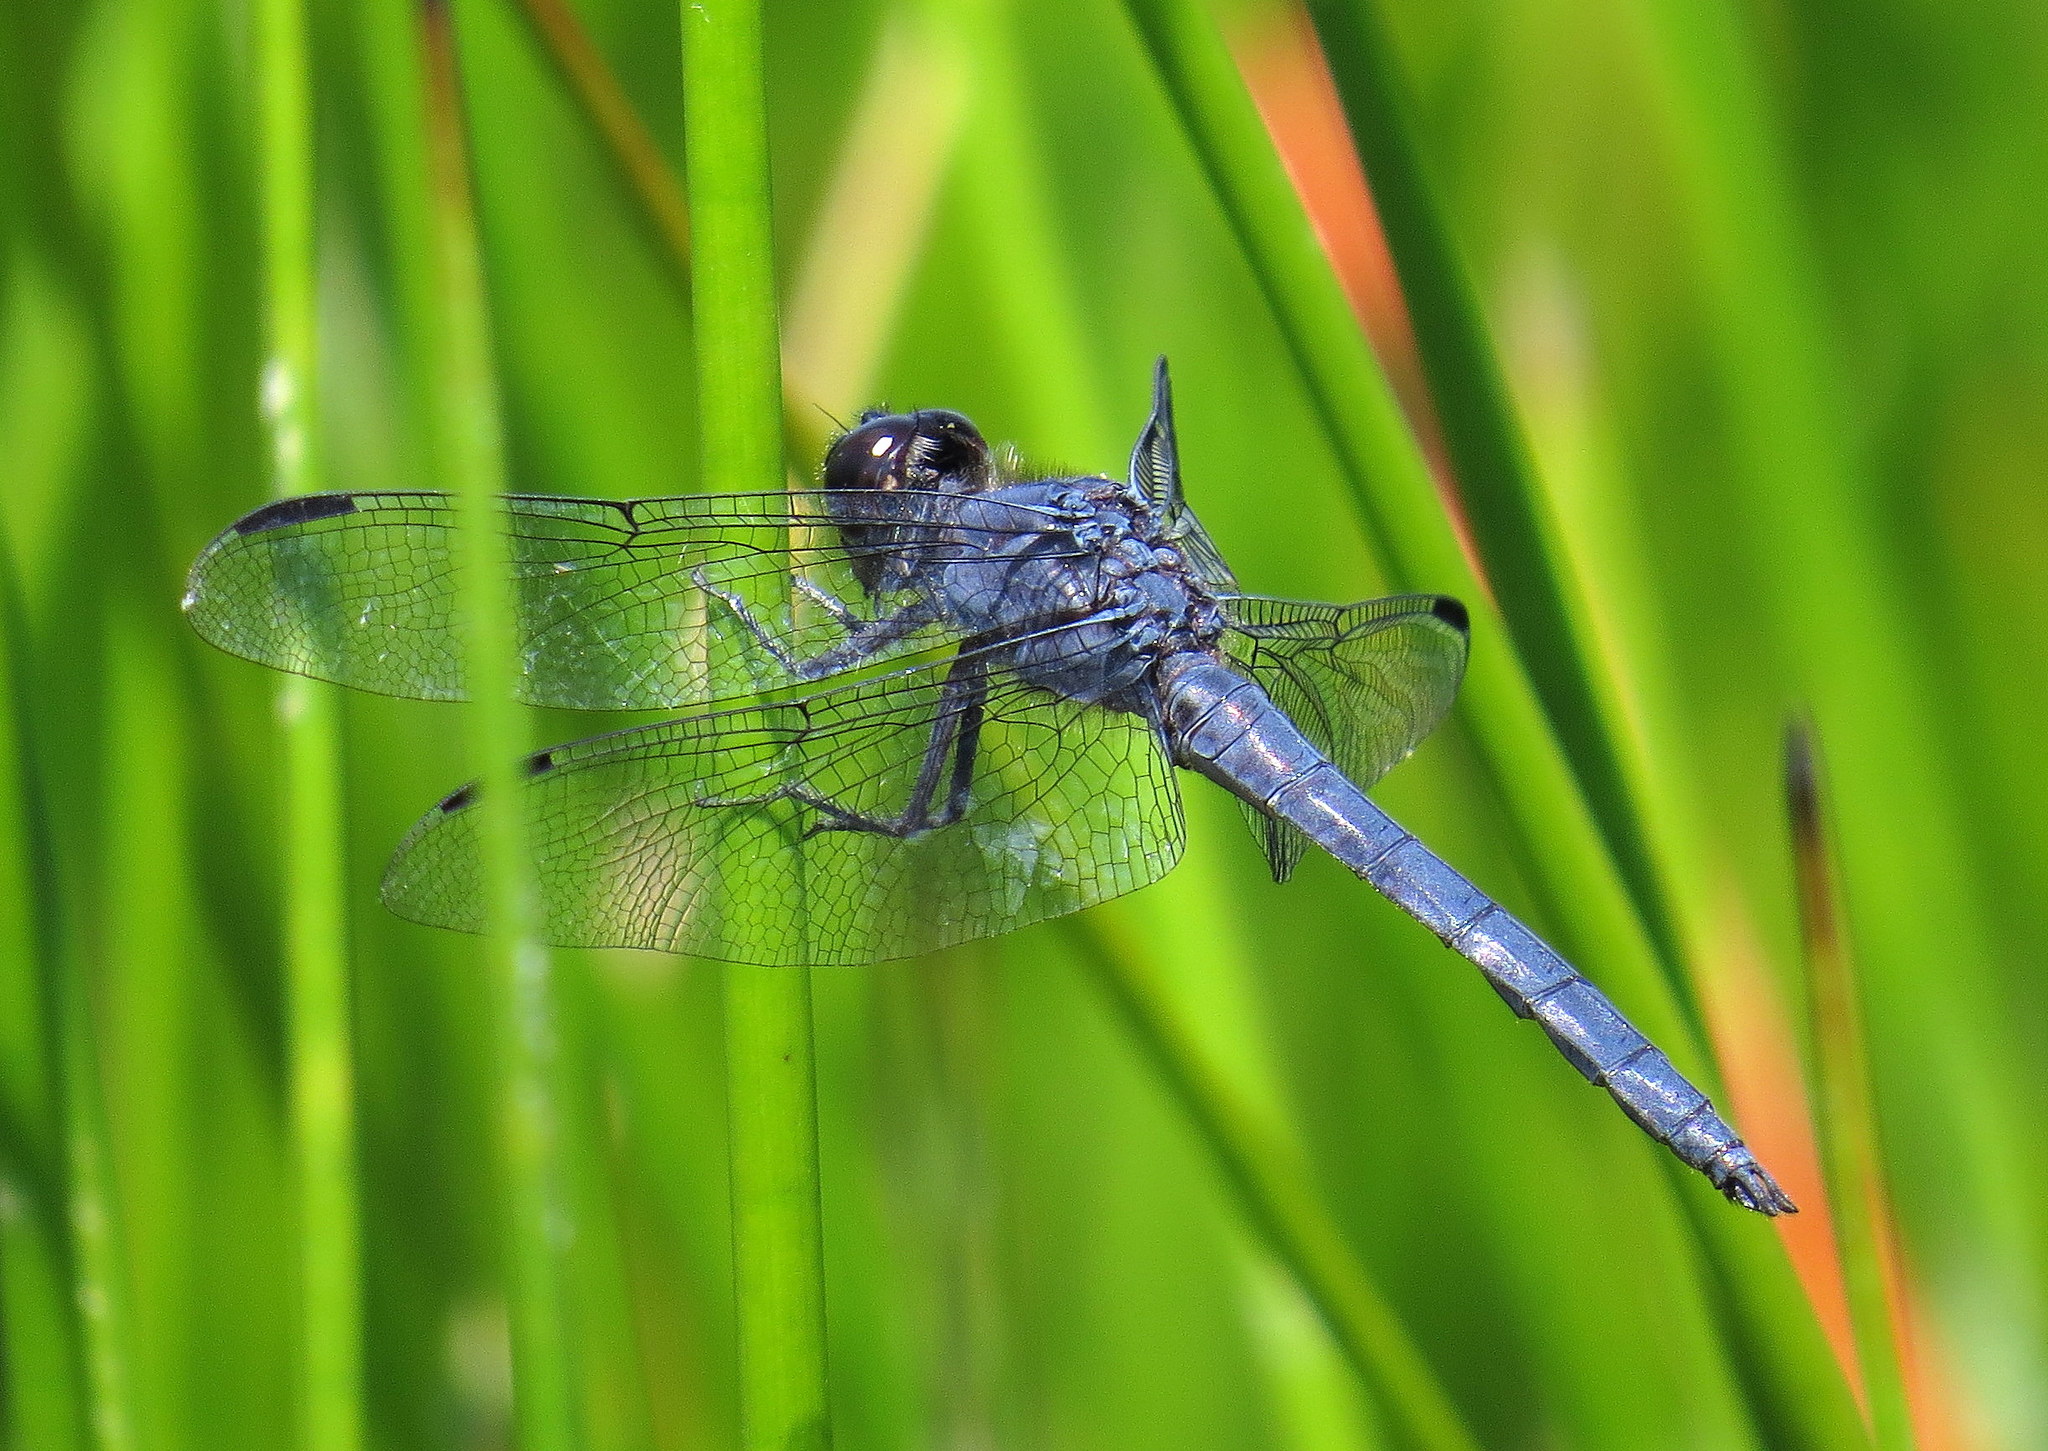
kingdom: Animalia
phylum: Arthropoda
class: Insecta
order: Odonata
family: Libellulidae
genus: Libellula
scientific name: Libellula incesta
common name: Slaty skimmer
